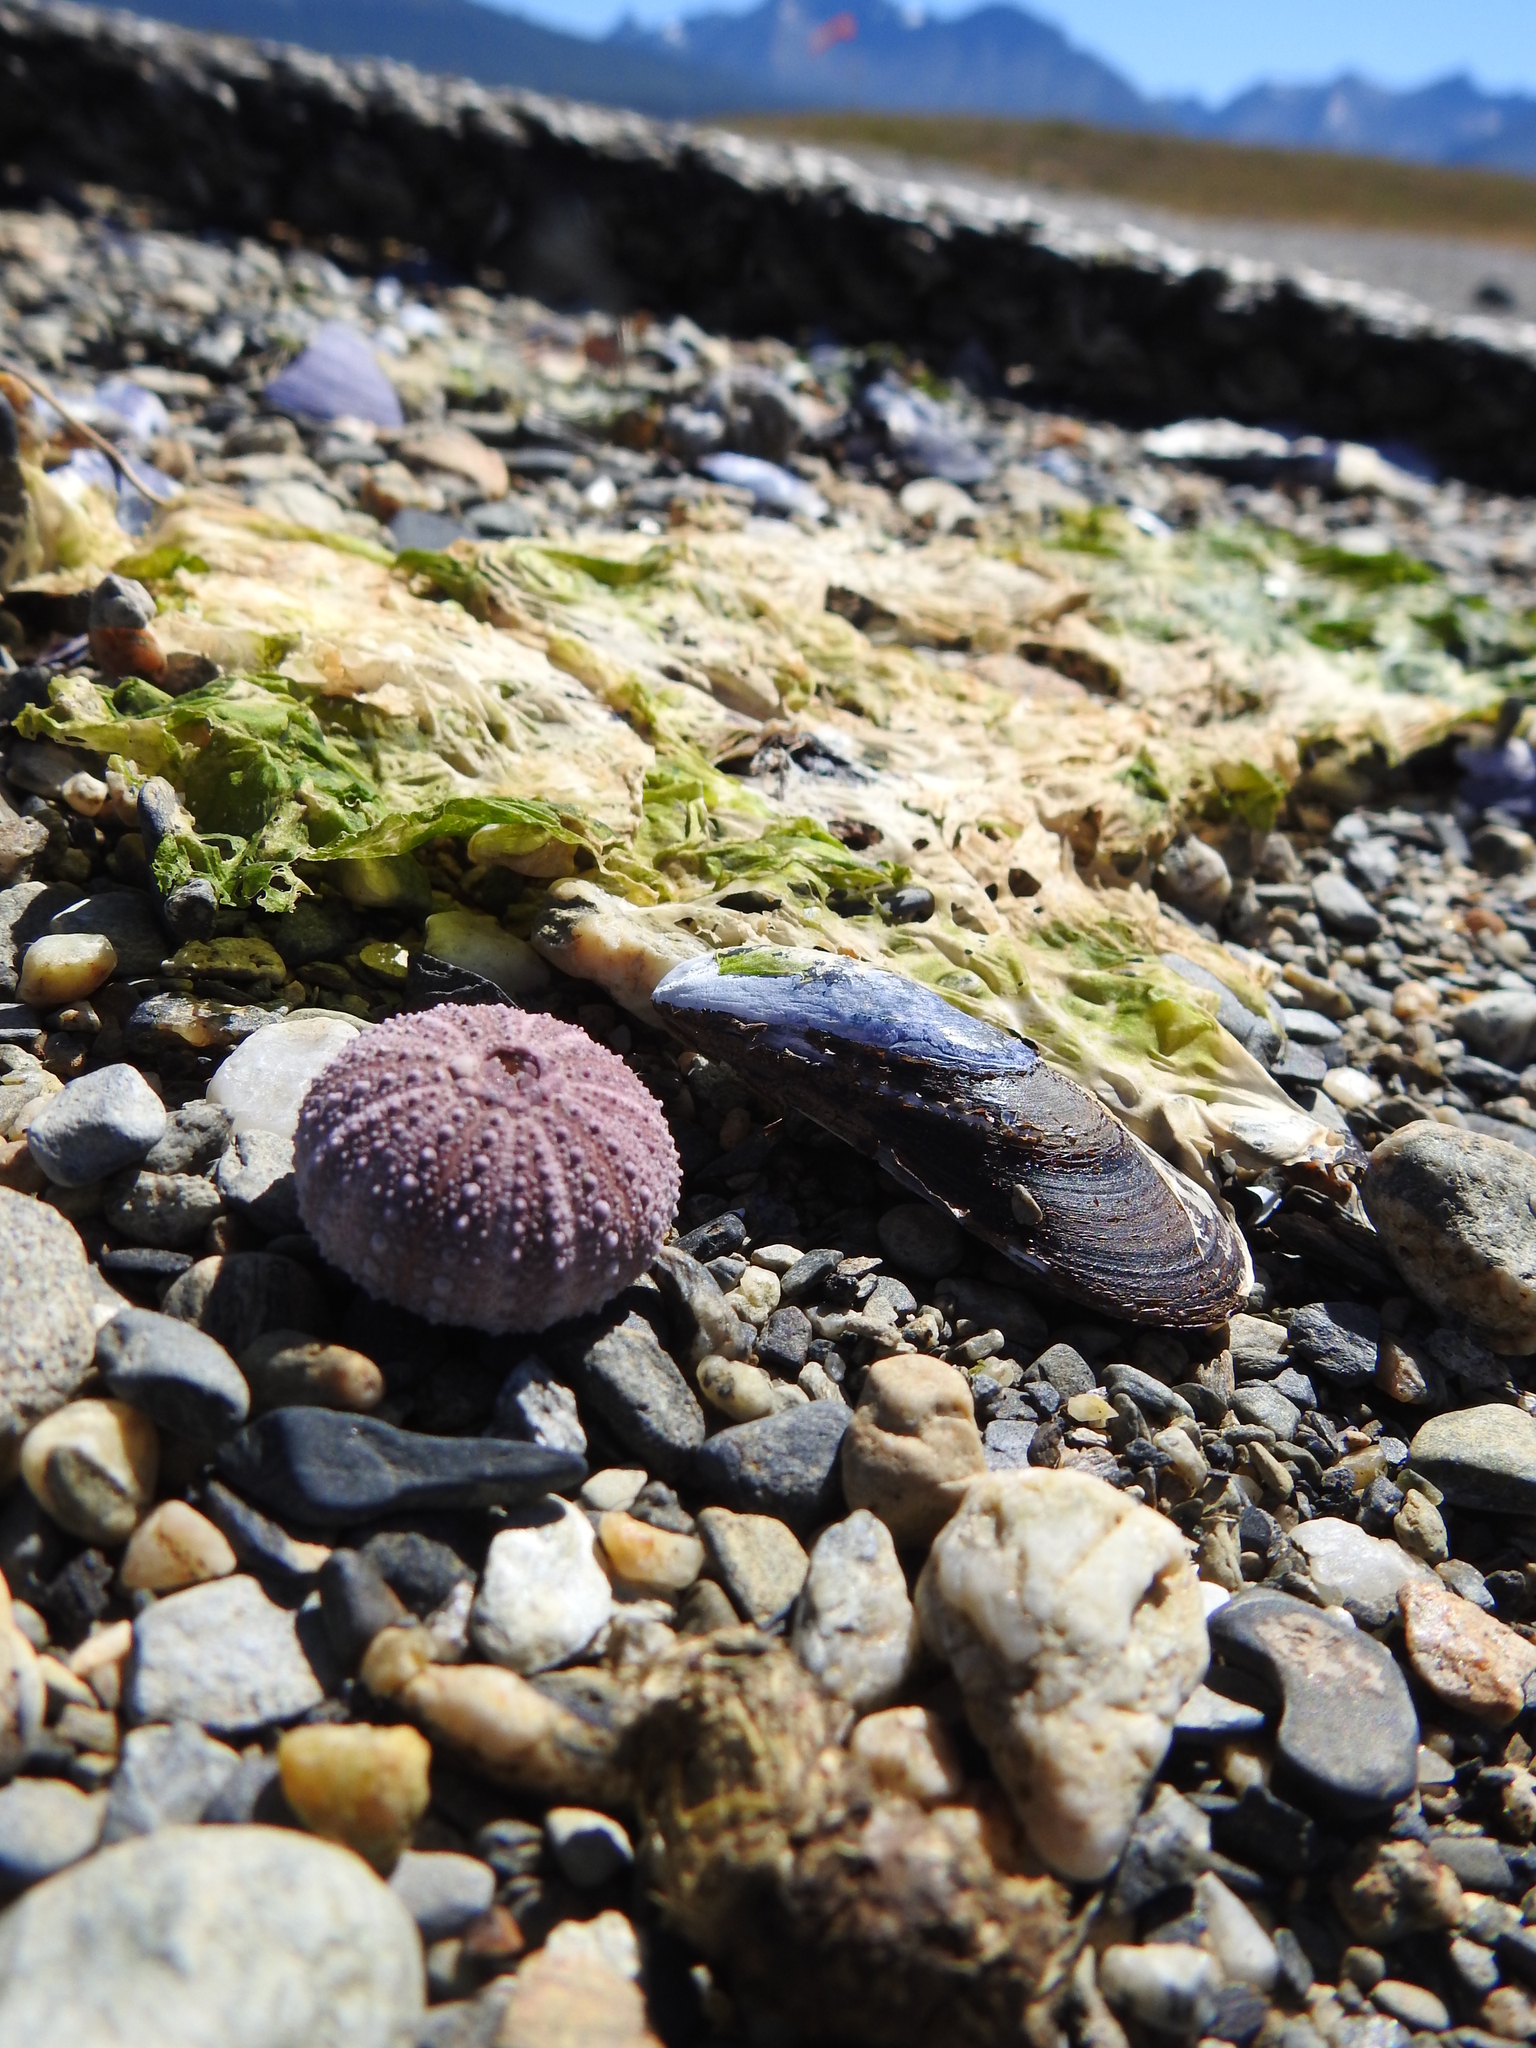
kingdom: Animalia
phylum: Echinodermata
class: Echinoidea
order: Camarodonta
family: Temnopleuridae
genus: Pseudechinus
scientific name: Pseudechinus magellanicus
